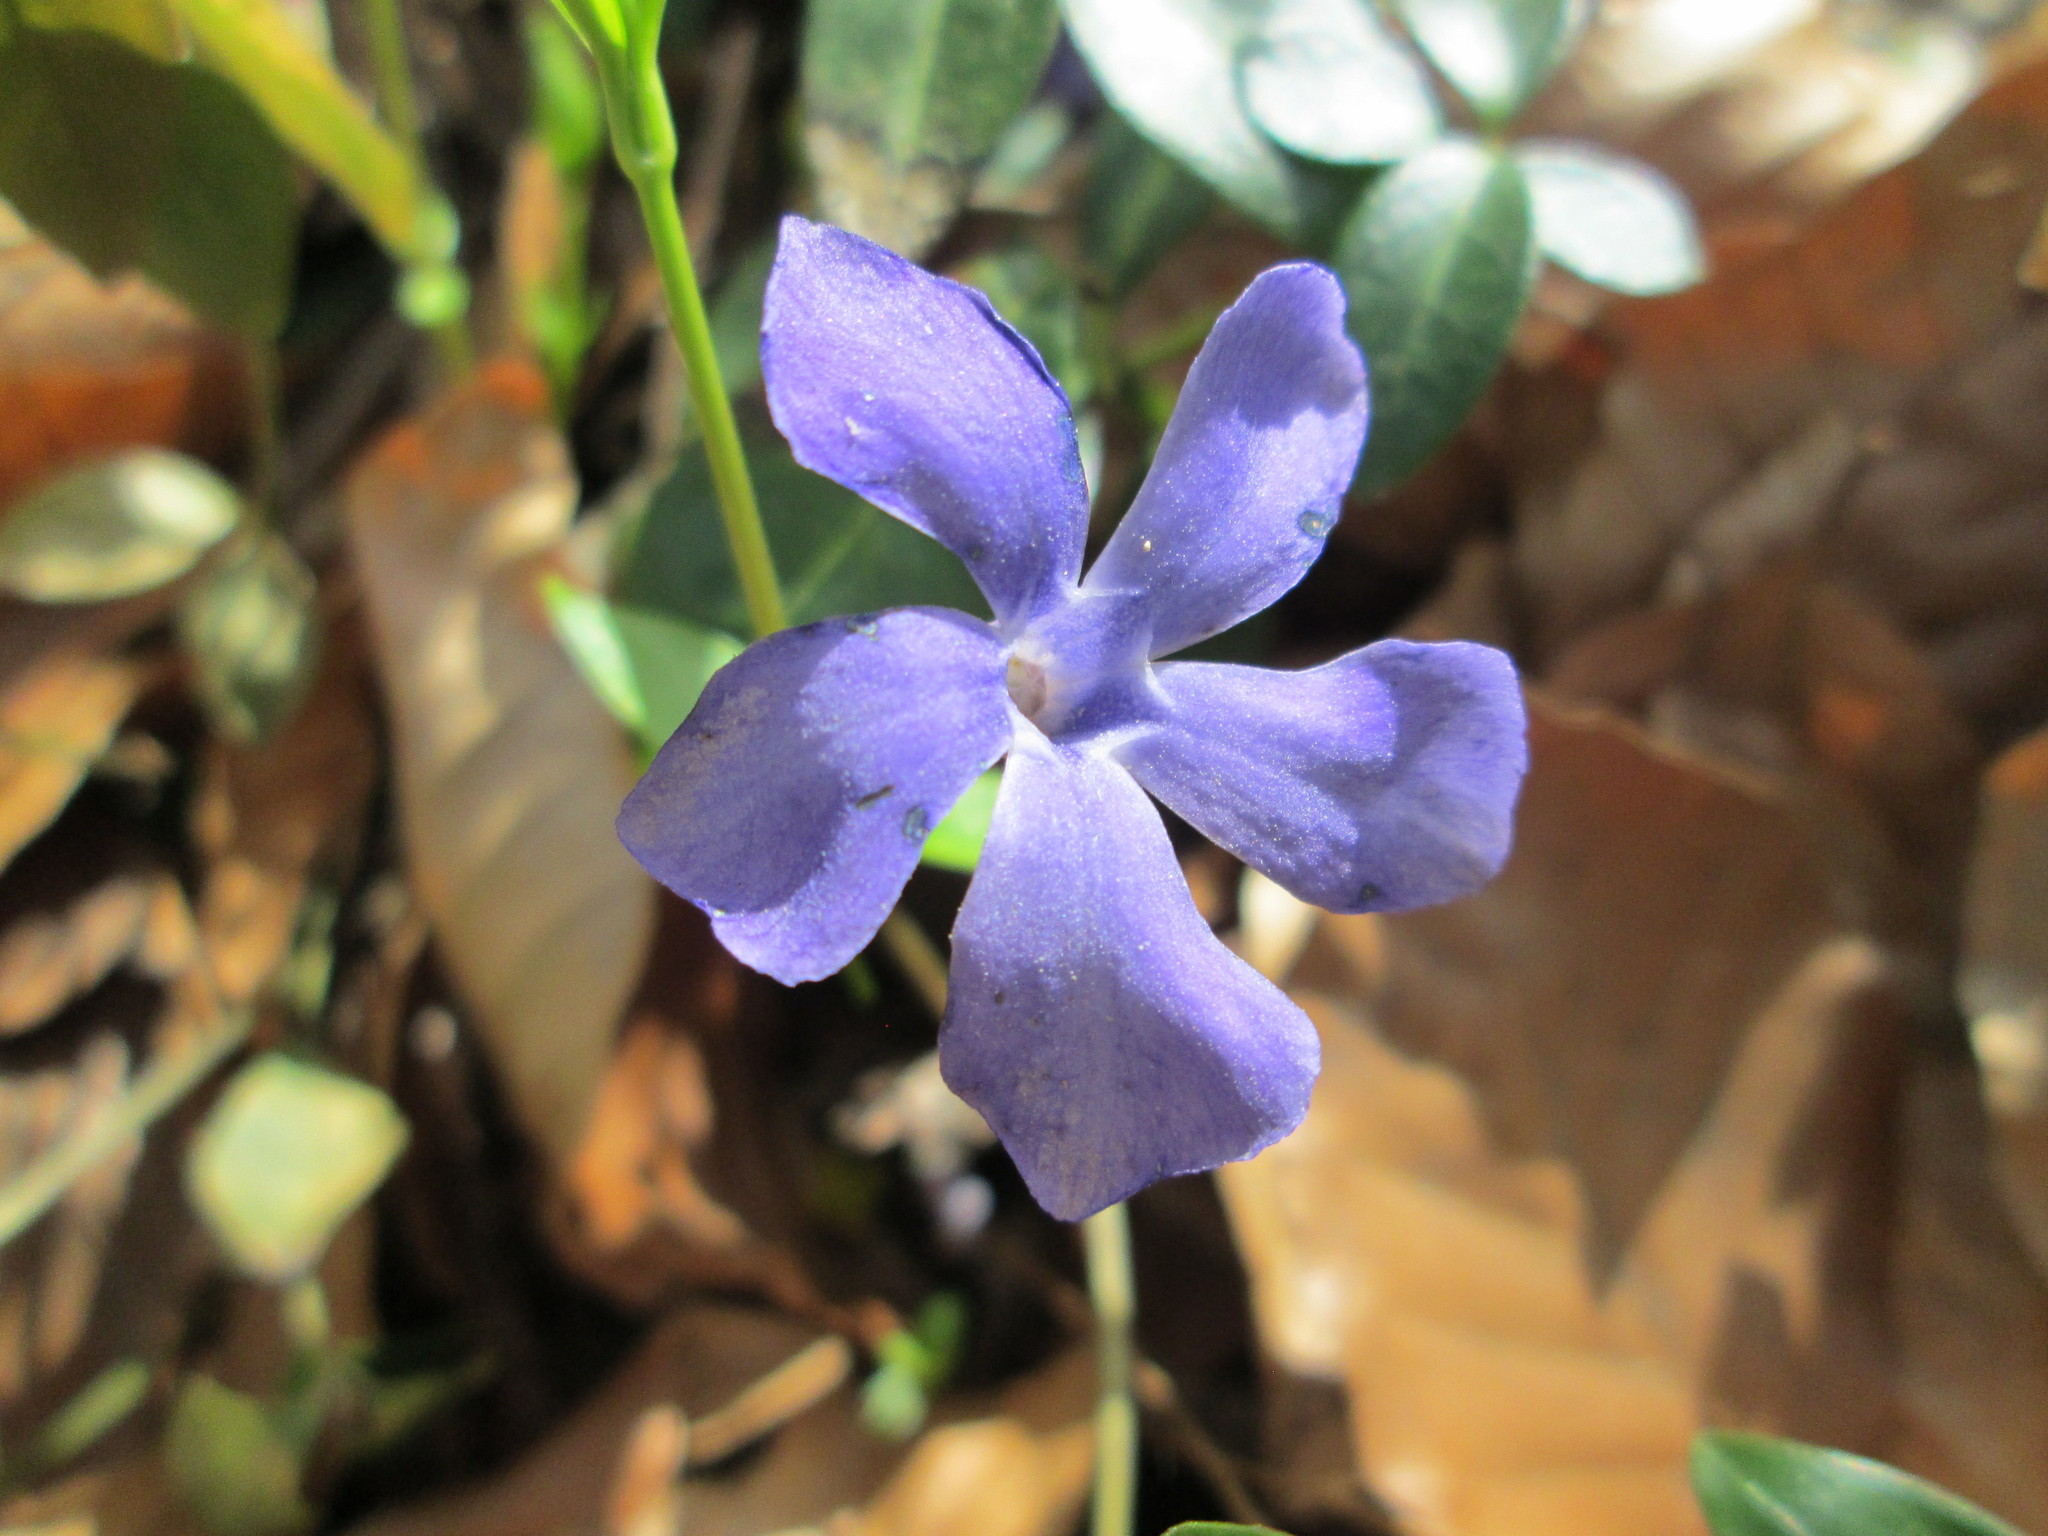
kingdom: Plantae
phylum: Tracheophyta
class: Magnoliopsida
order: Gentianales
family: Apocynaceae
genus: Vinca
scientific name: Vinca minor
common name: Lesser periwinkle
